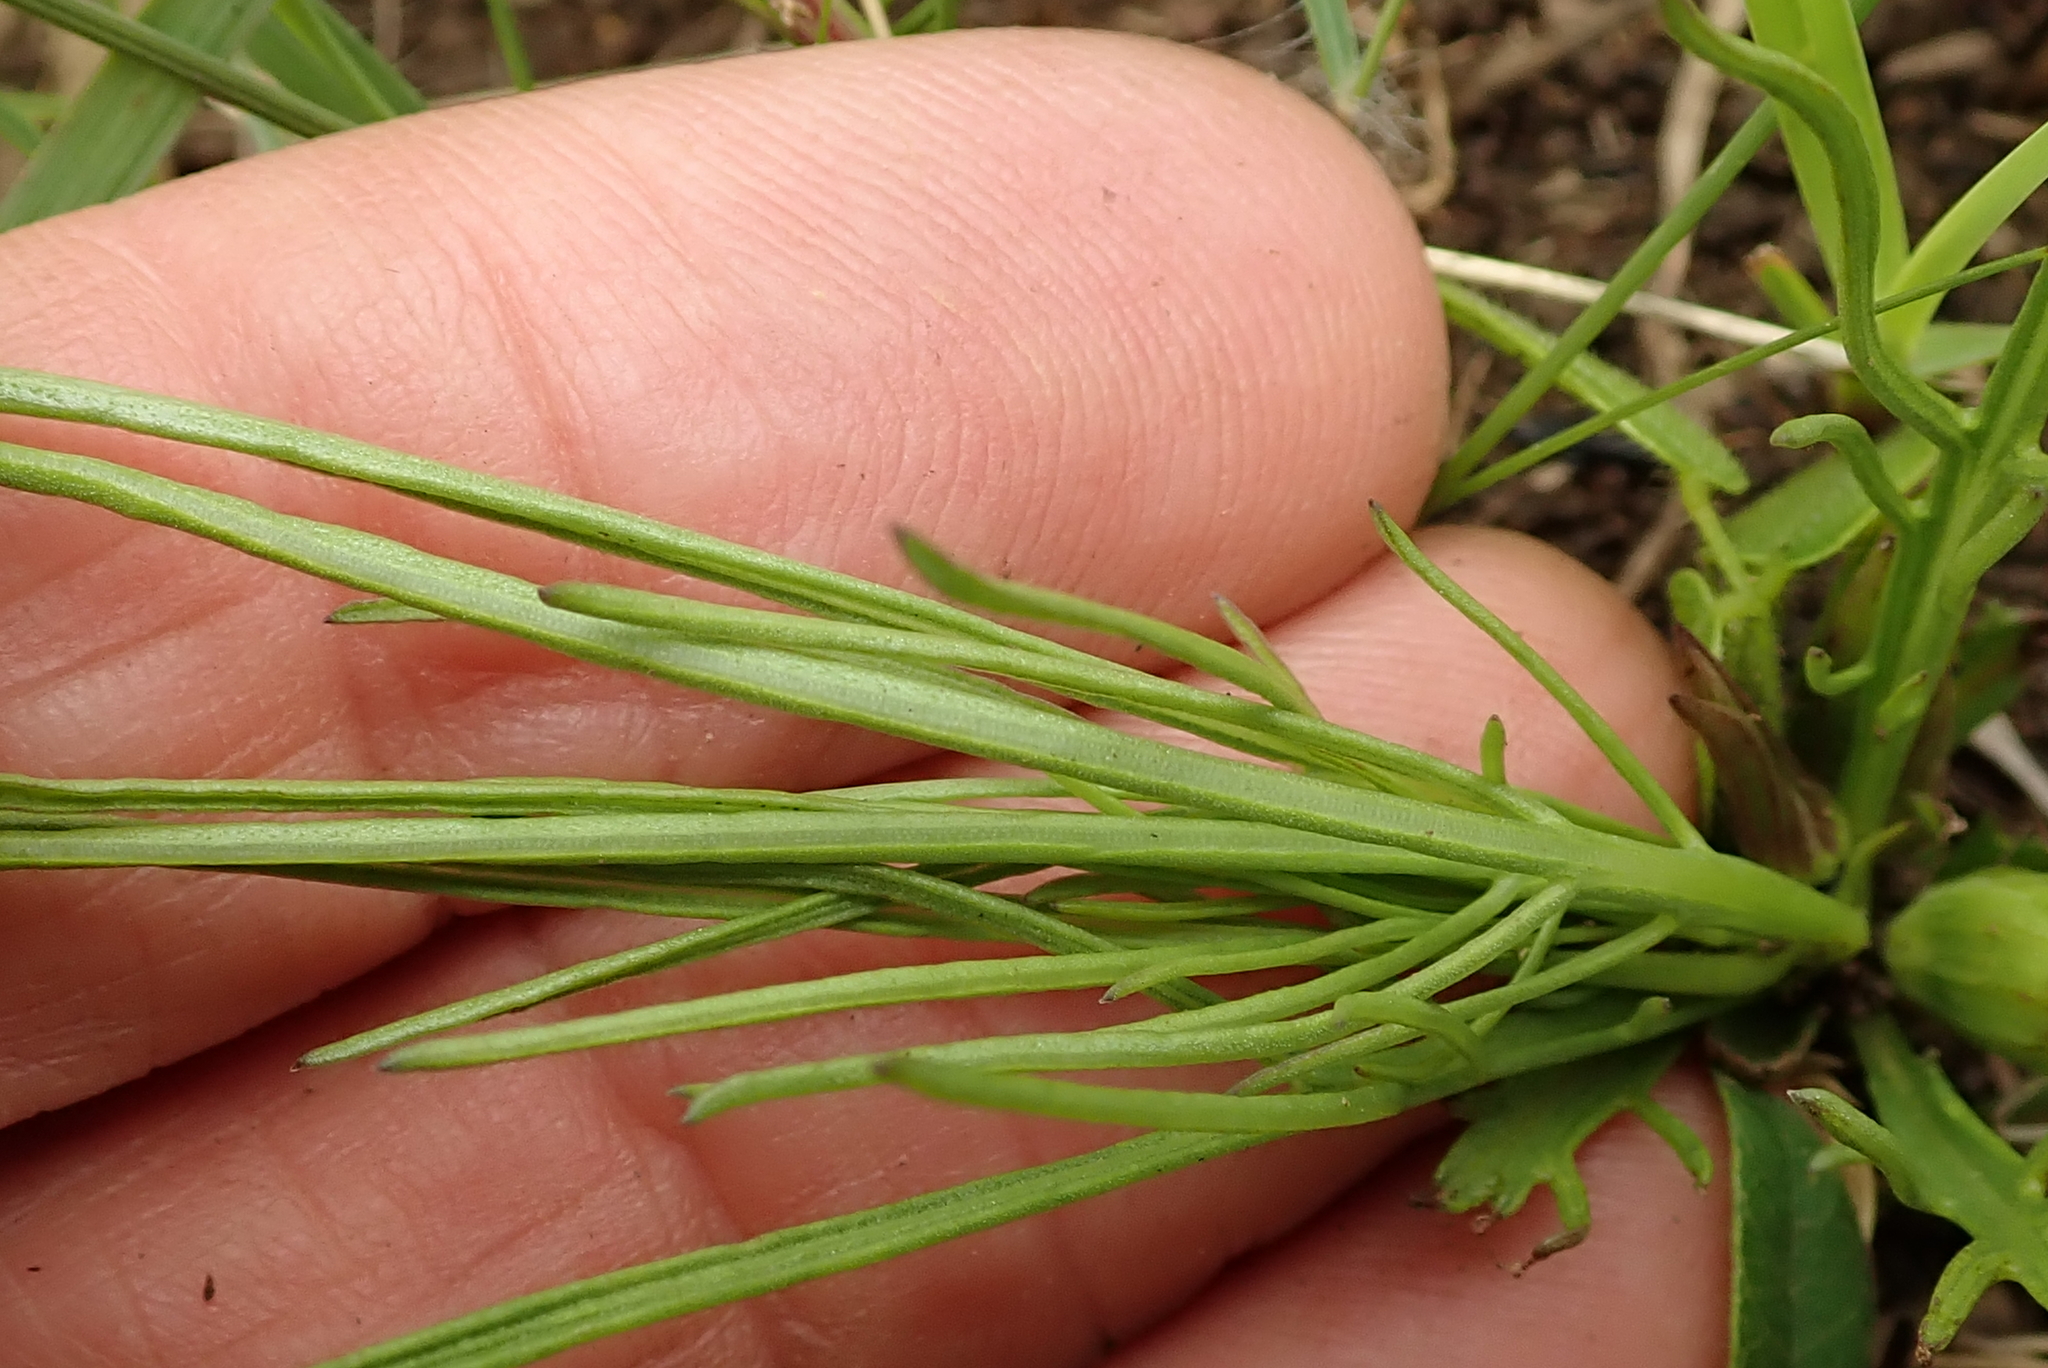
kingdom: Plantae
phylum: Tracheophyta
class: Magnoliopsida
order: Solanales
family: Convolvulaceae
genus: Ipomoea
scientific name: Ipomoea simplex
